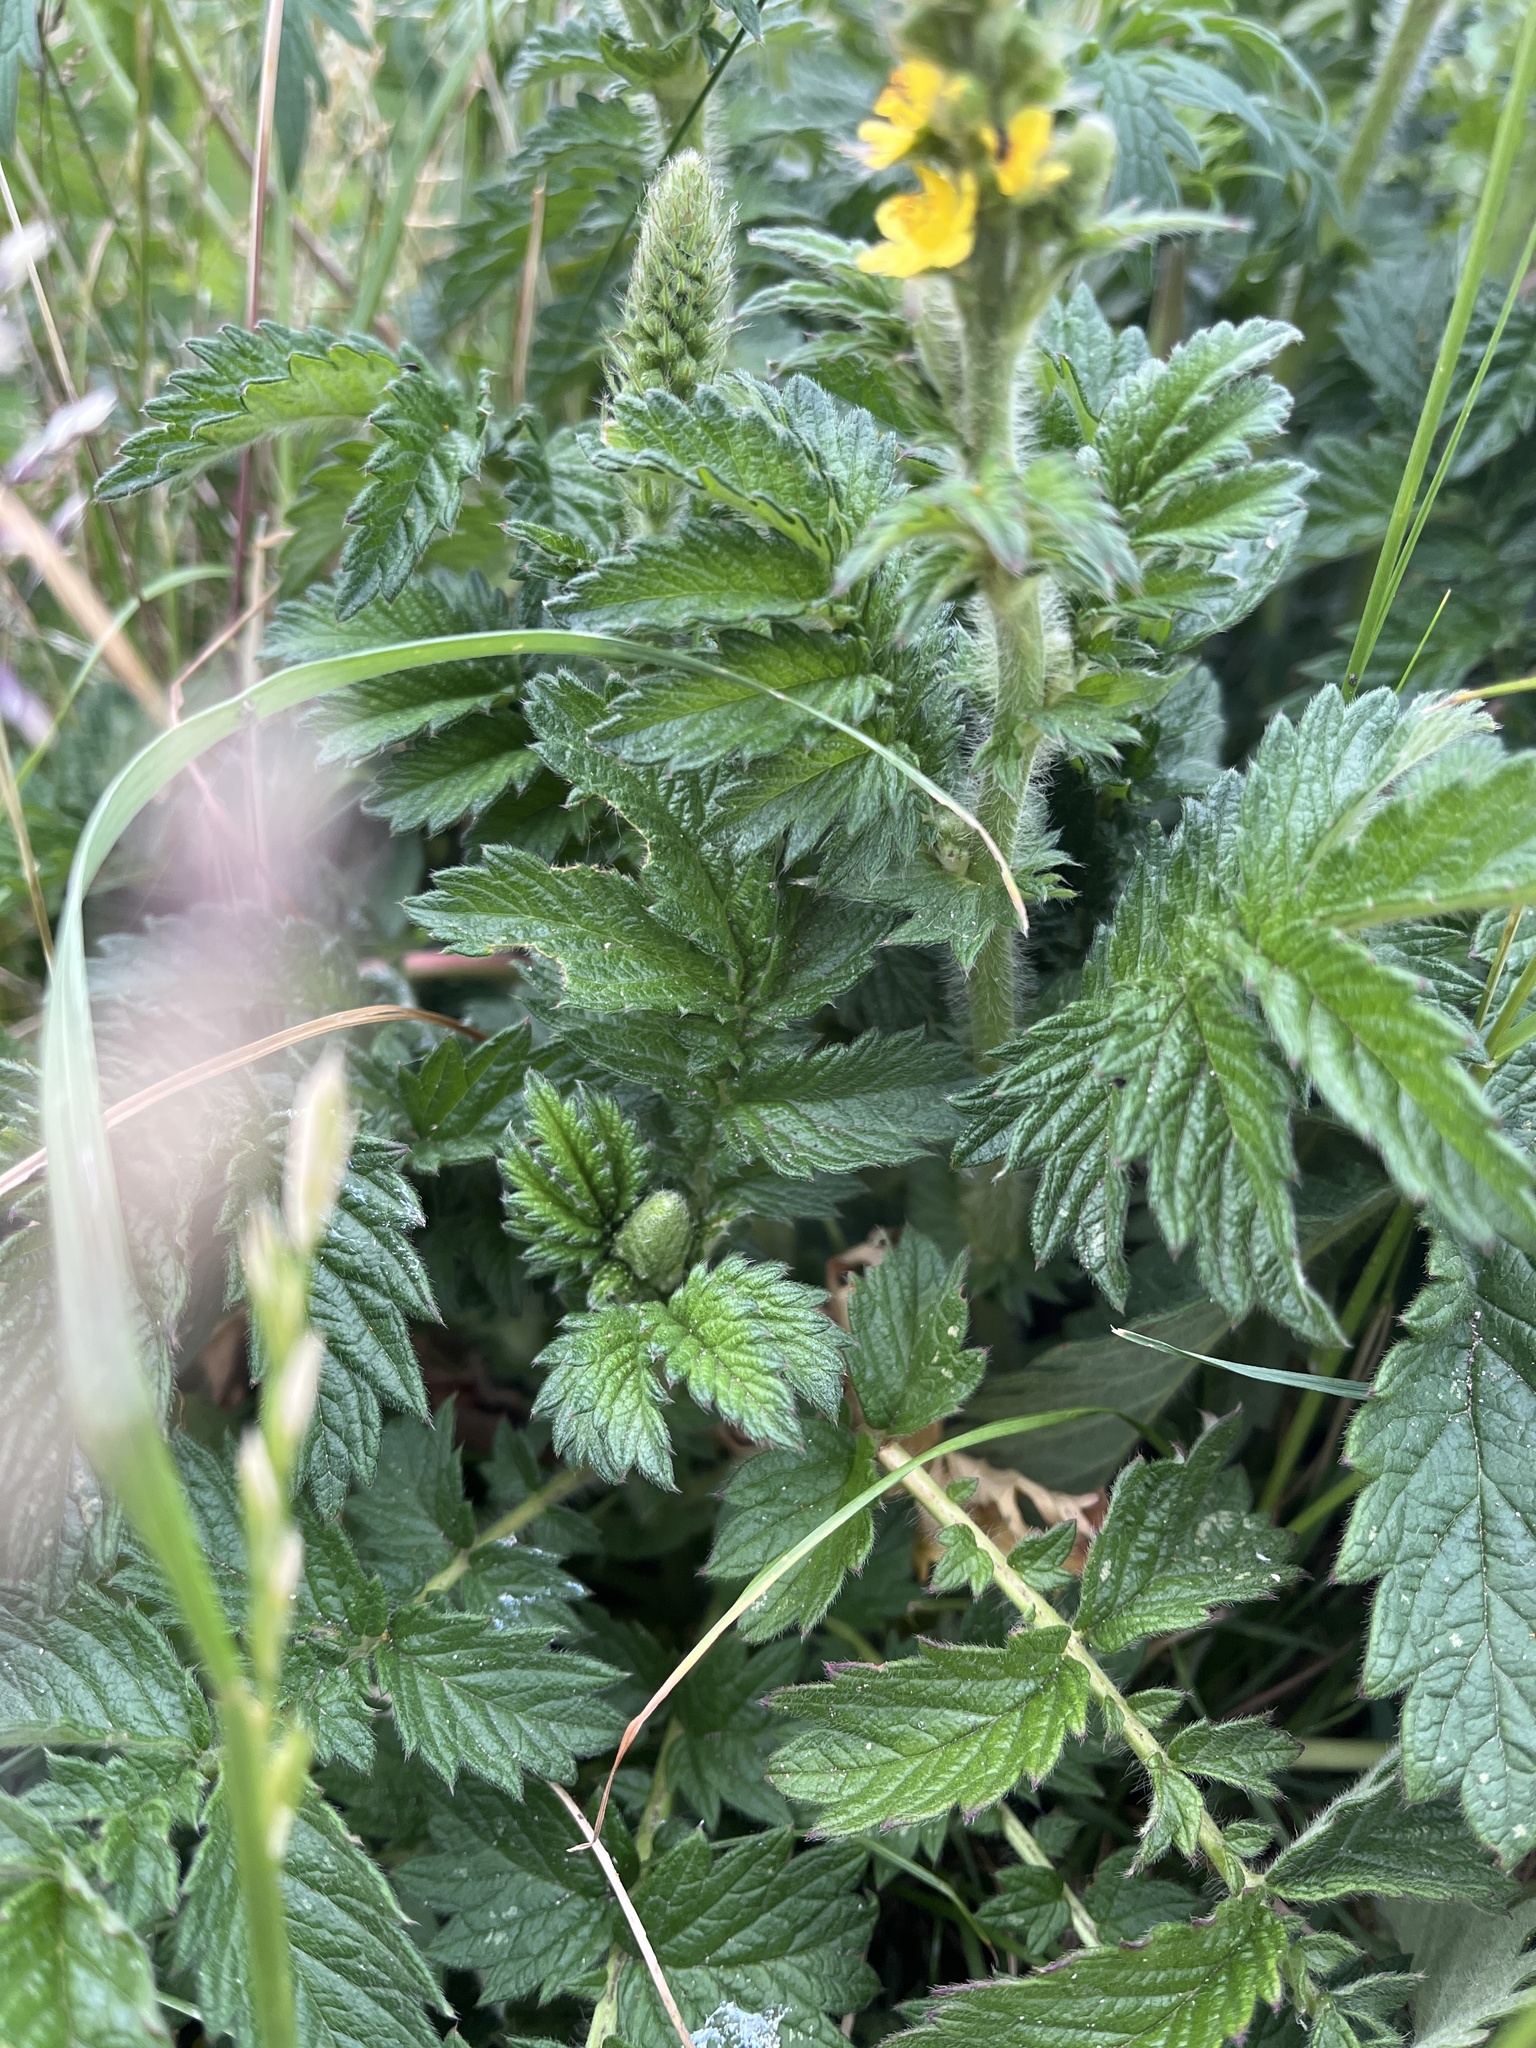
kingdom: Plantae
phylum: Tracheophyta
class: Magnoliopsida
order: Rosales
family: Rosaceae
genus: Agrimonia
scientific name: Agrimonia eupatoria
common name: Agrimony
